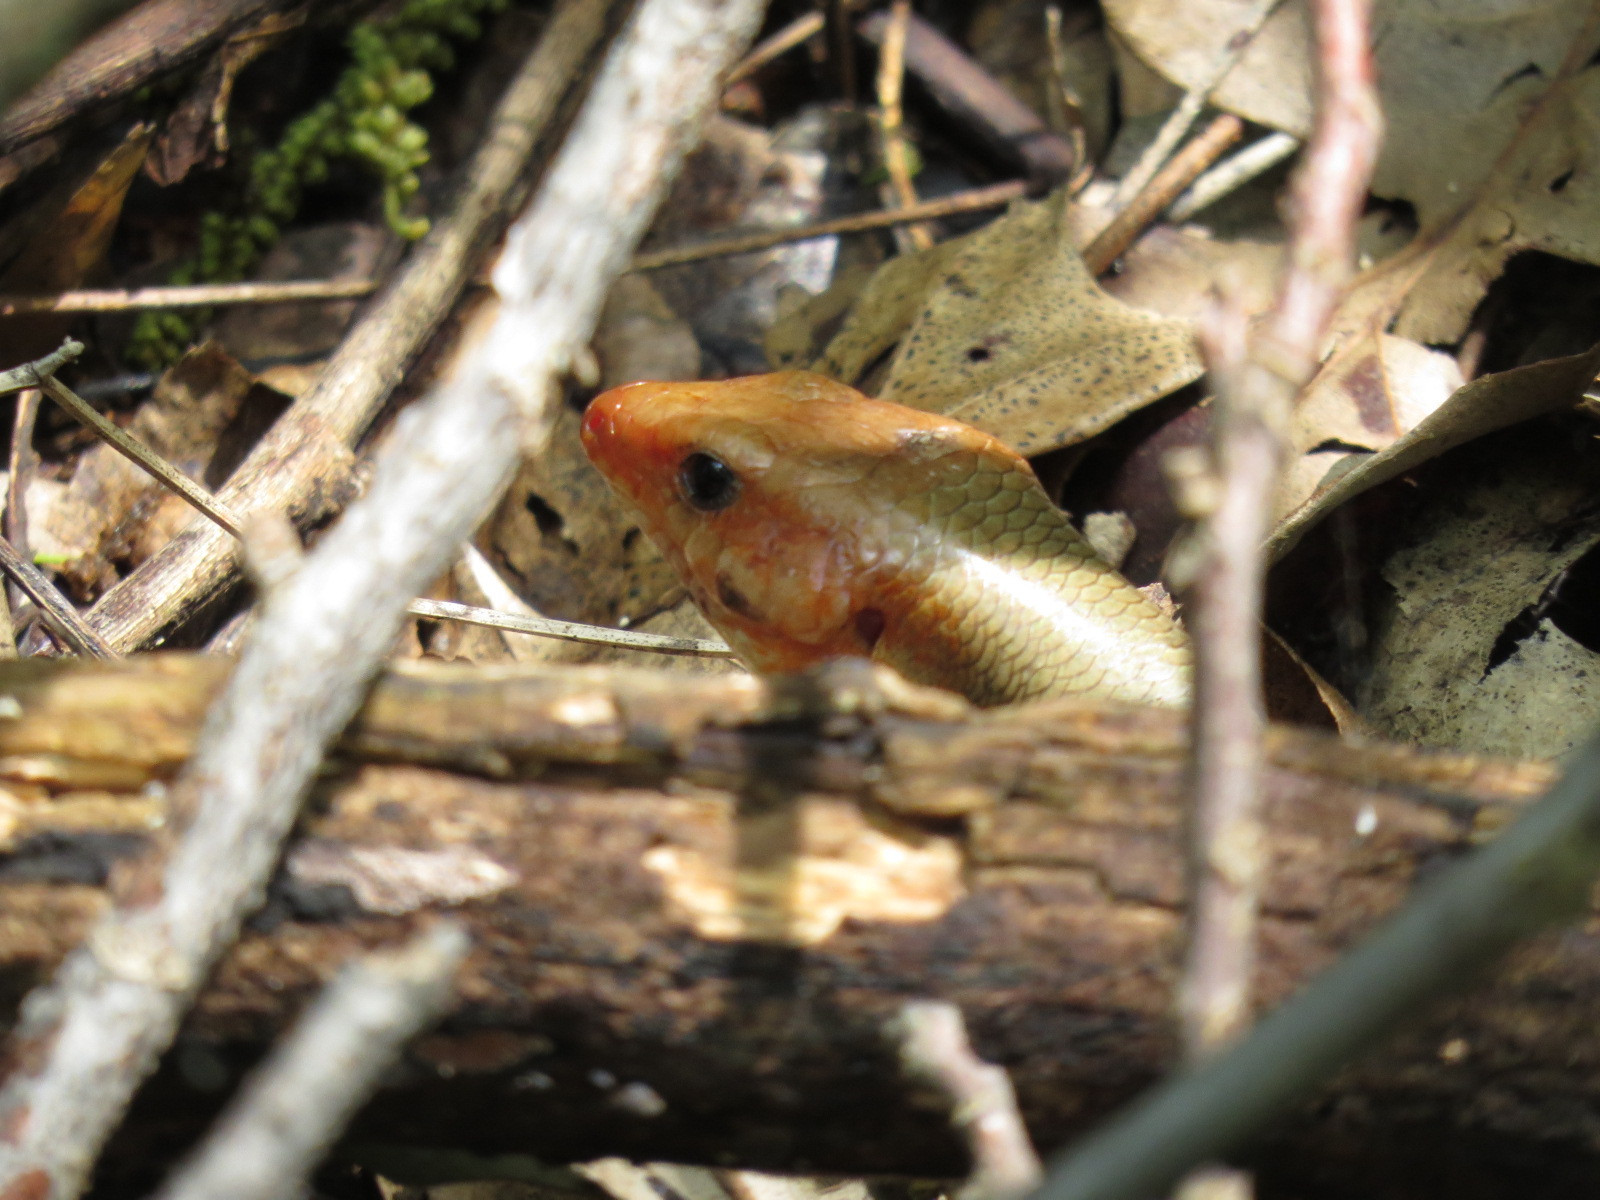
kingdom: Animalia
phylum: Chordata
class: Squamata
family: Scincidae
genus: Plestiodon
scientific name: Plestiodon laticeps
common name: Broadhead skink
